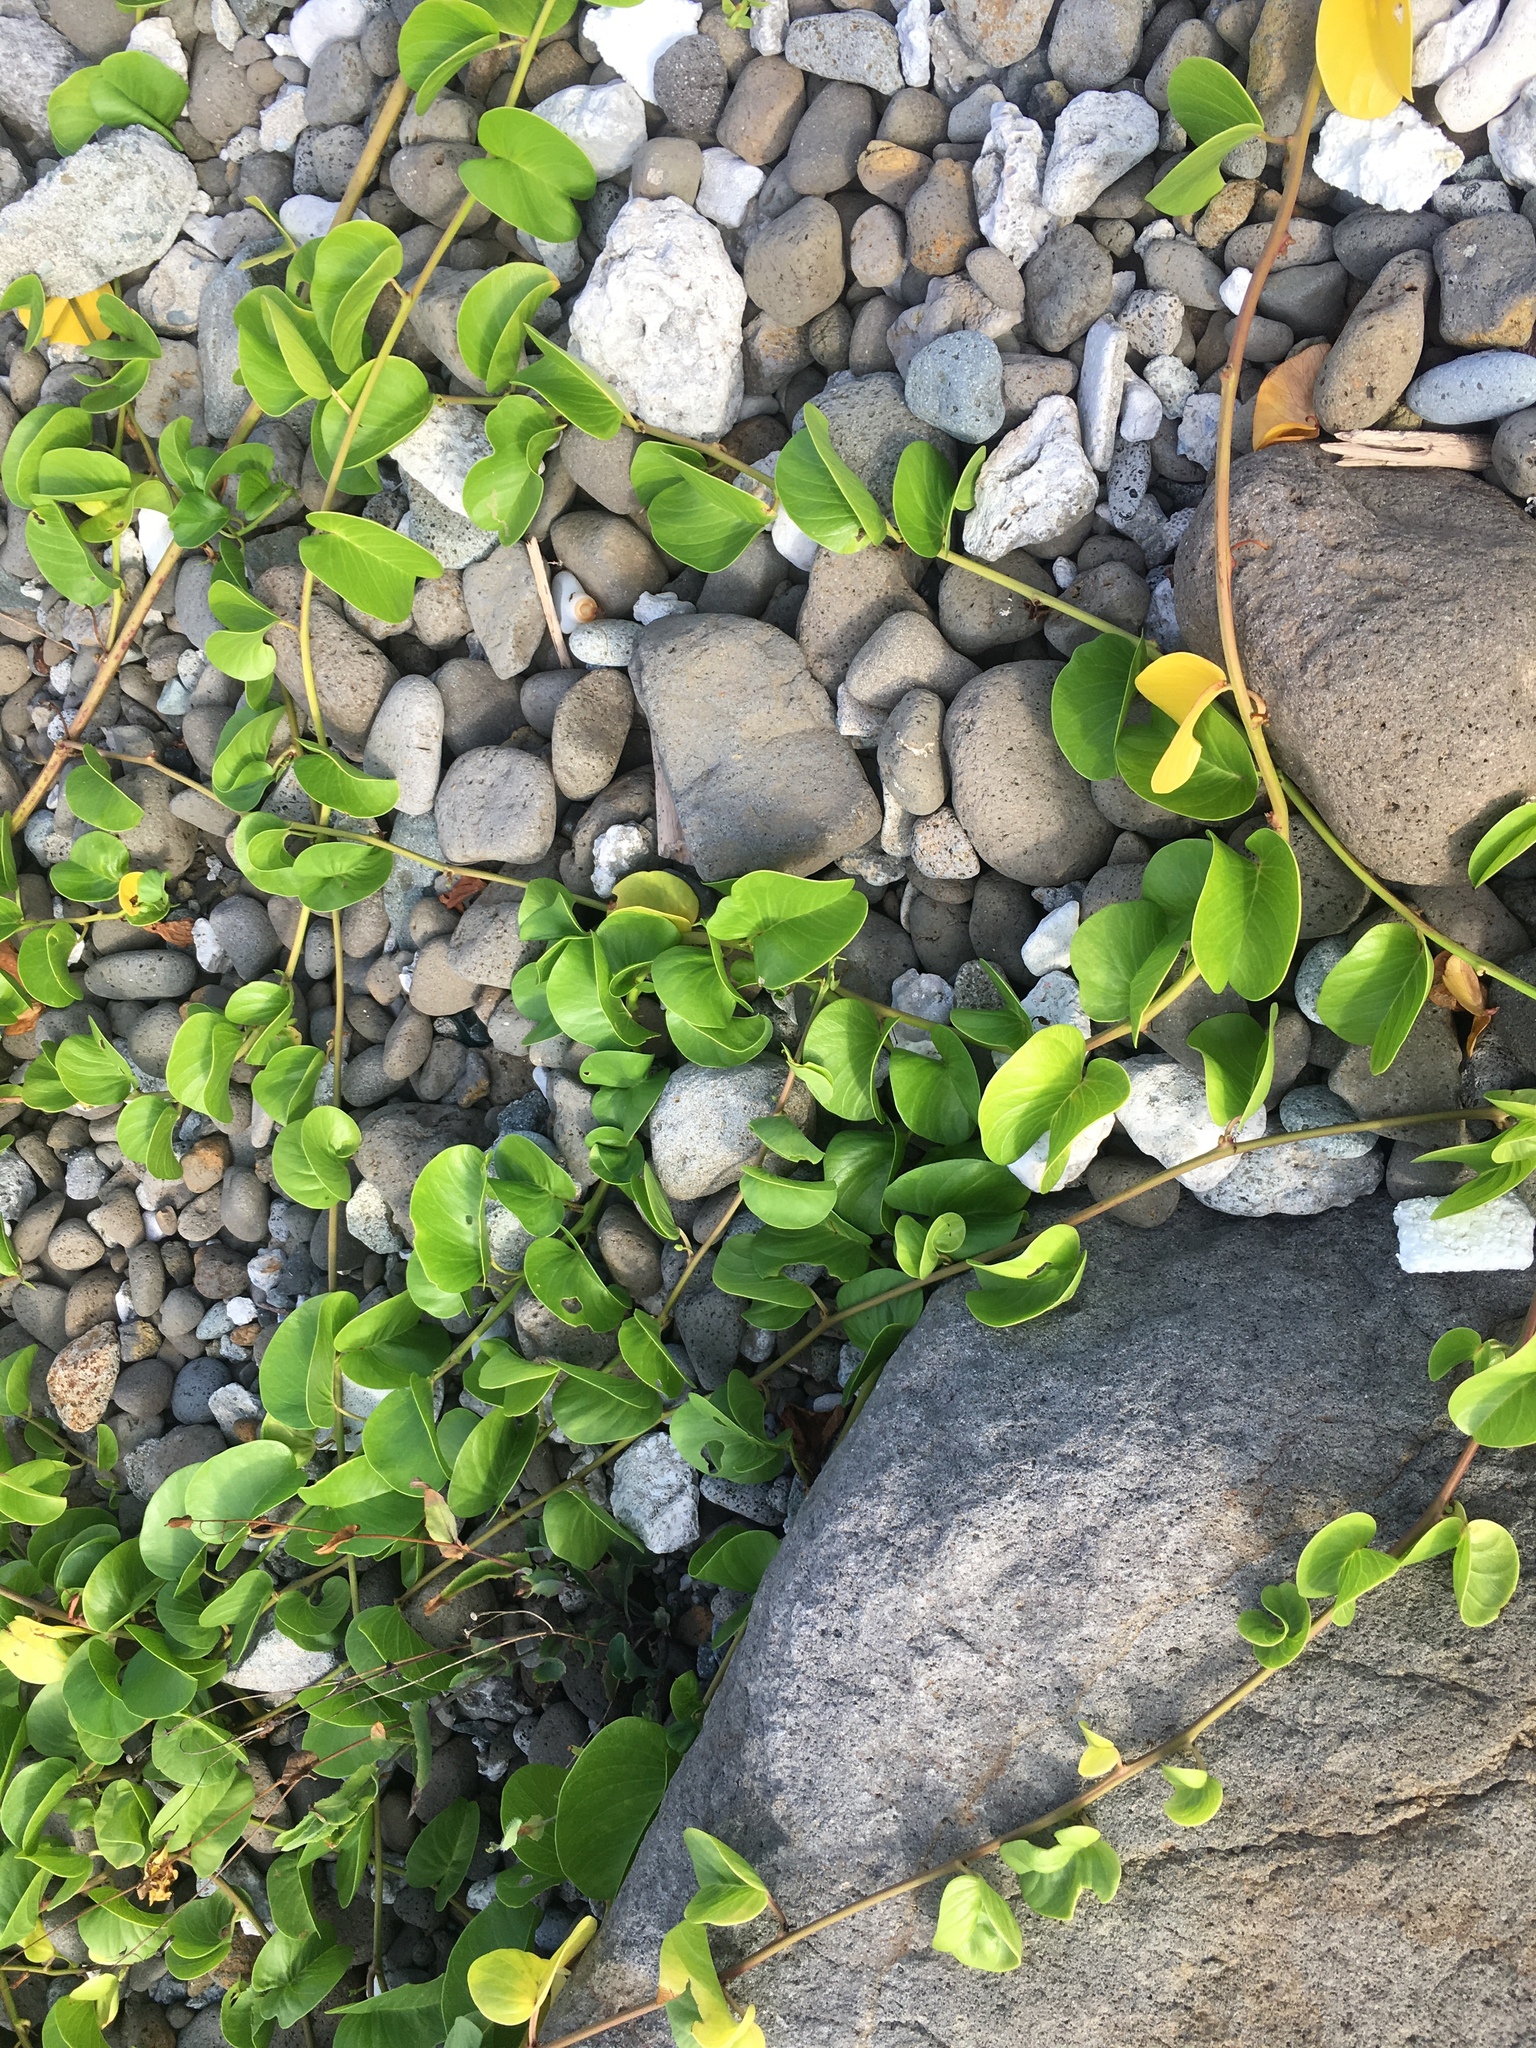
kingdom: Plantae
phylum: Tracheophyta
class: Magnoliopsida
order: Solanales
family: Convolvulaceae
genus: Ipomoea
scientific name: Ipomoea pes-caprae
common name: Beach morning glory
